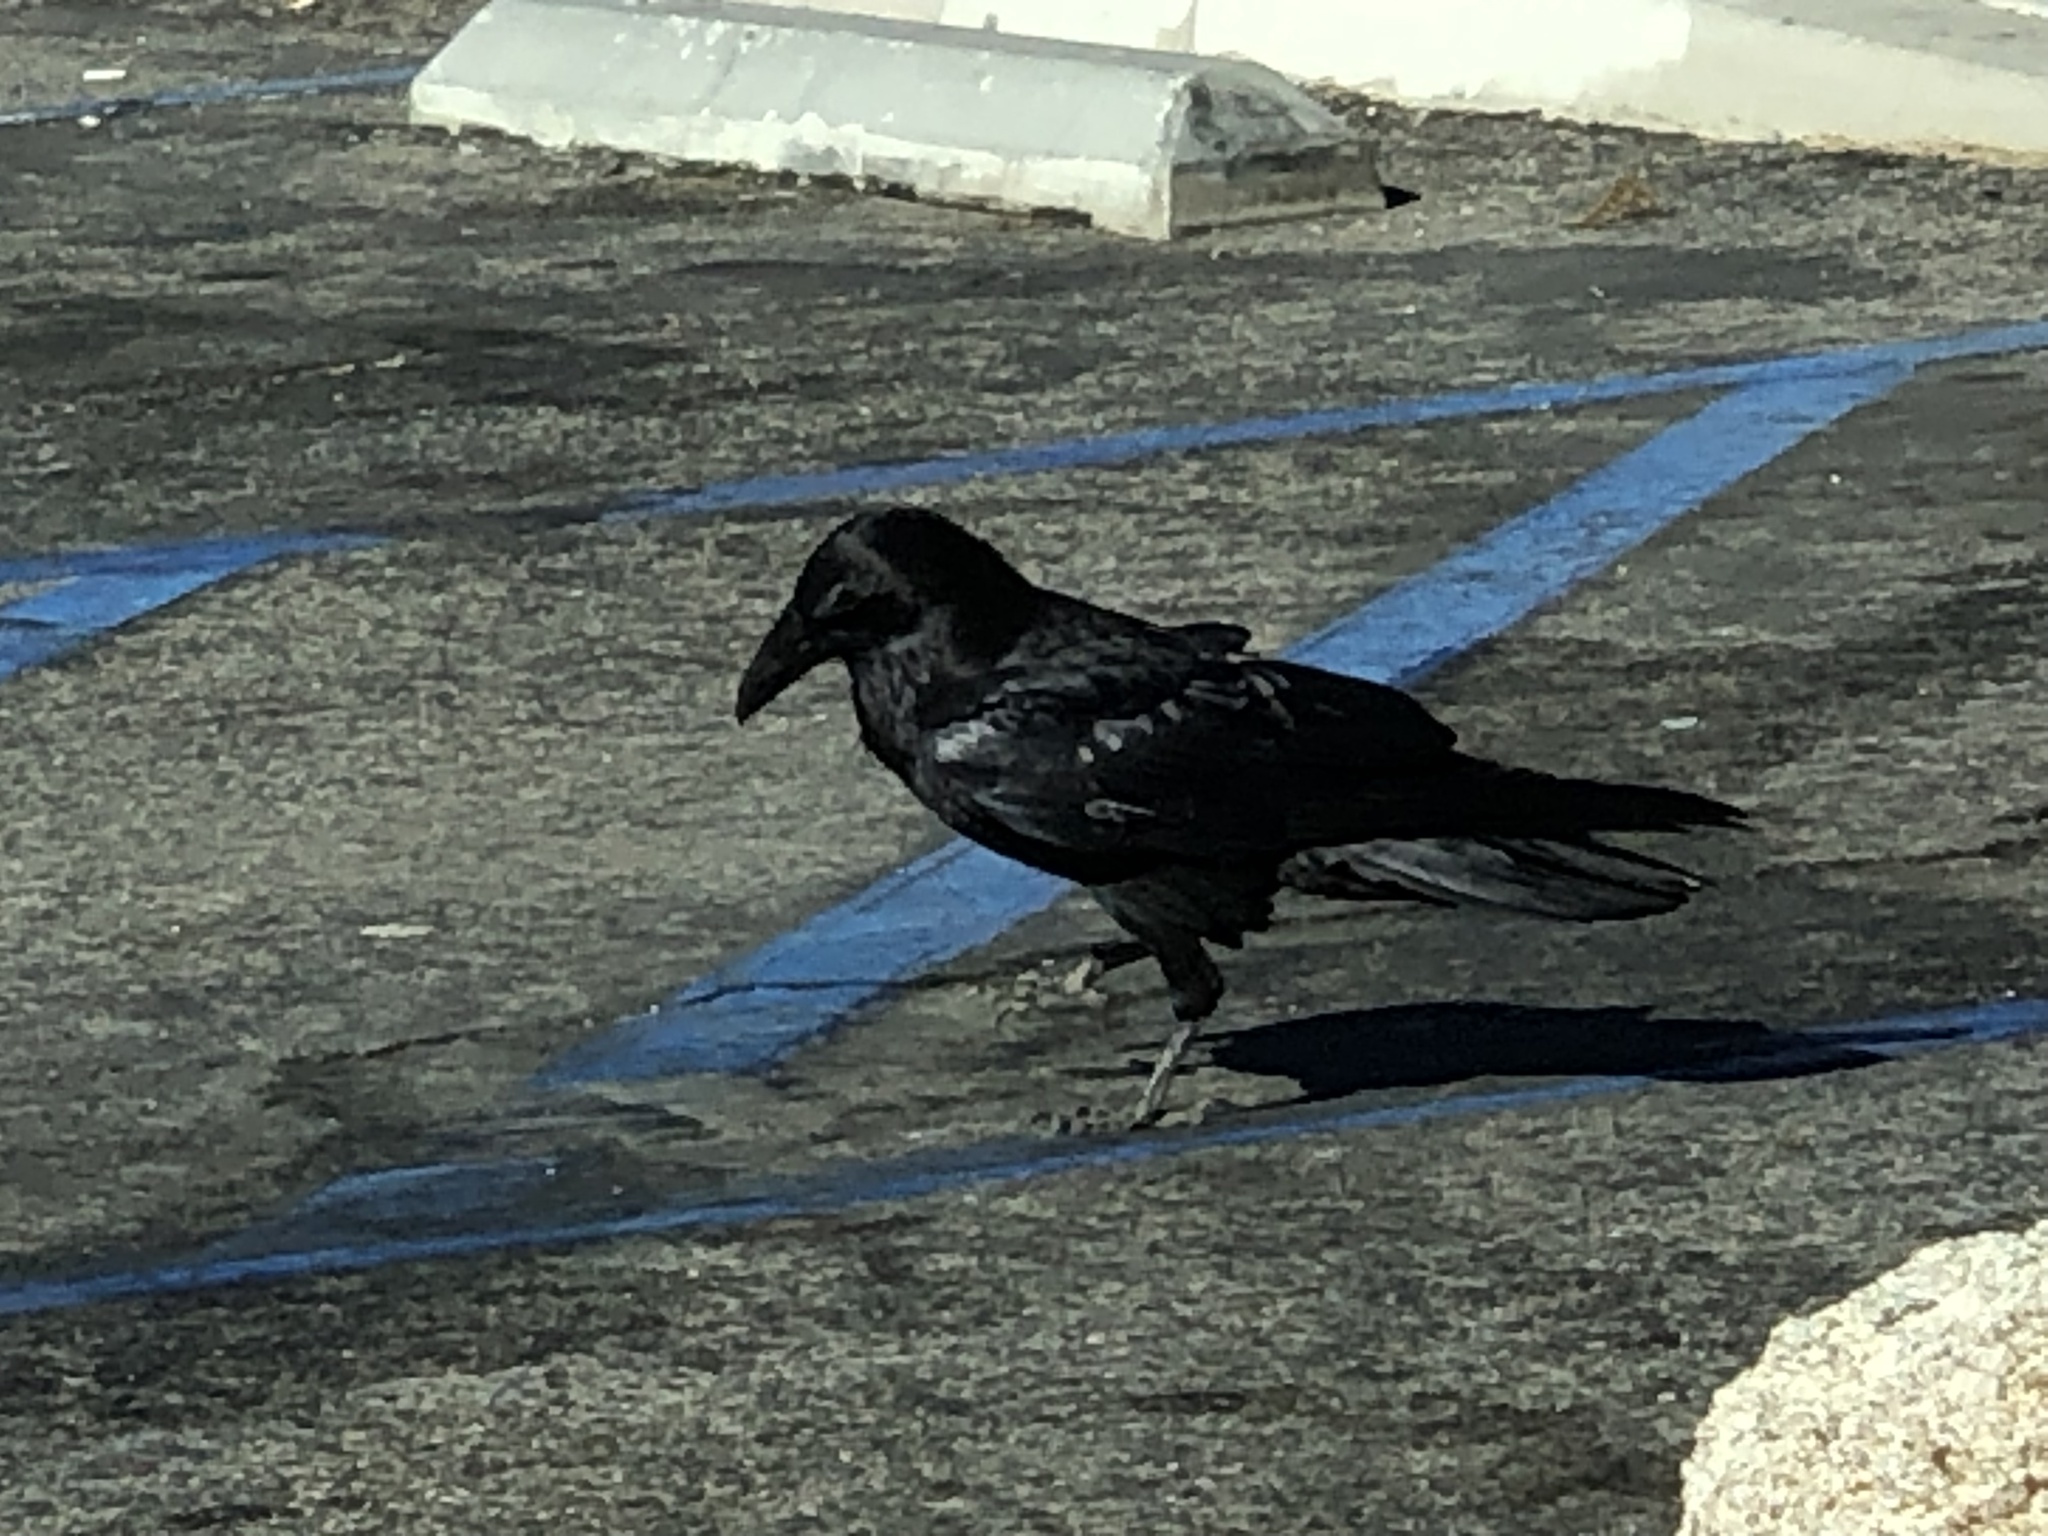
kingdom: Animalia
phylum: Chordata
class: Aves
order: Passeriformes
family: Corvidae
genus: Corvus
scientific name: Corvus corax
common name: Common raven
